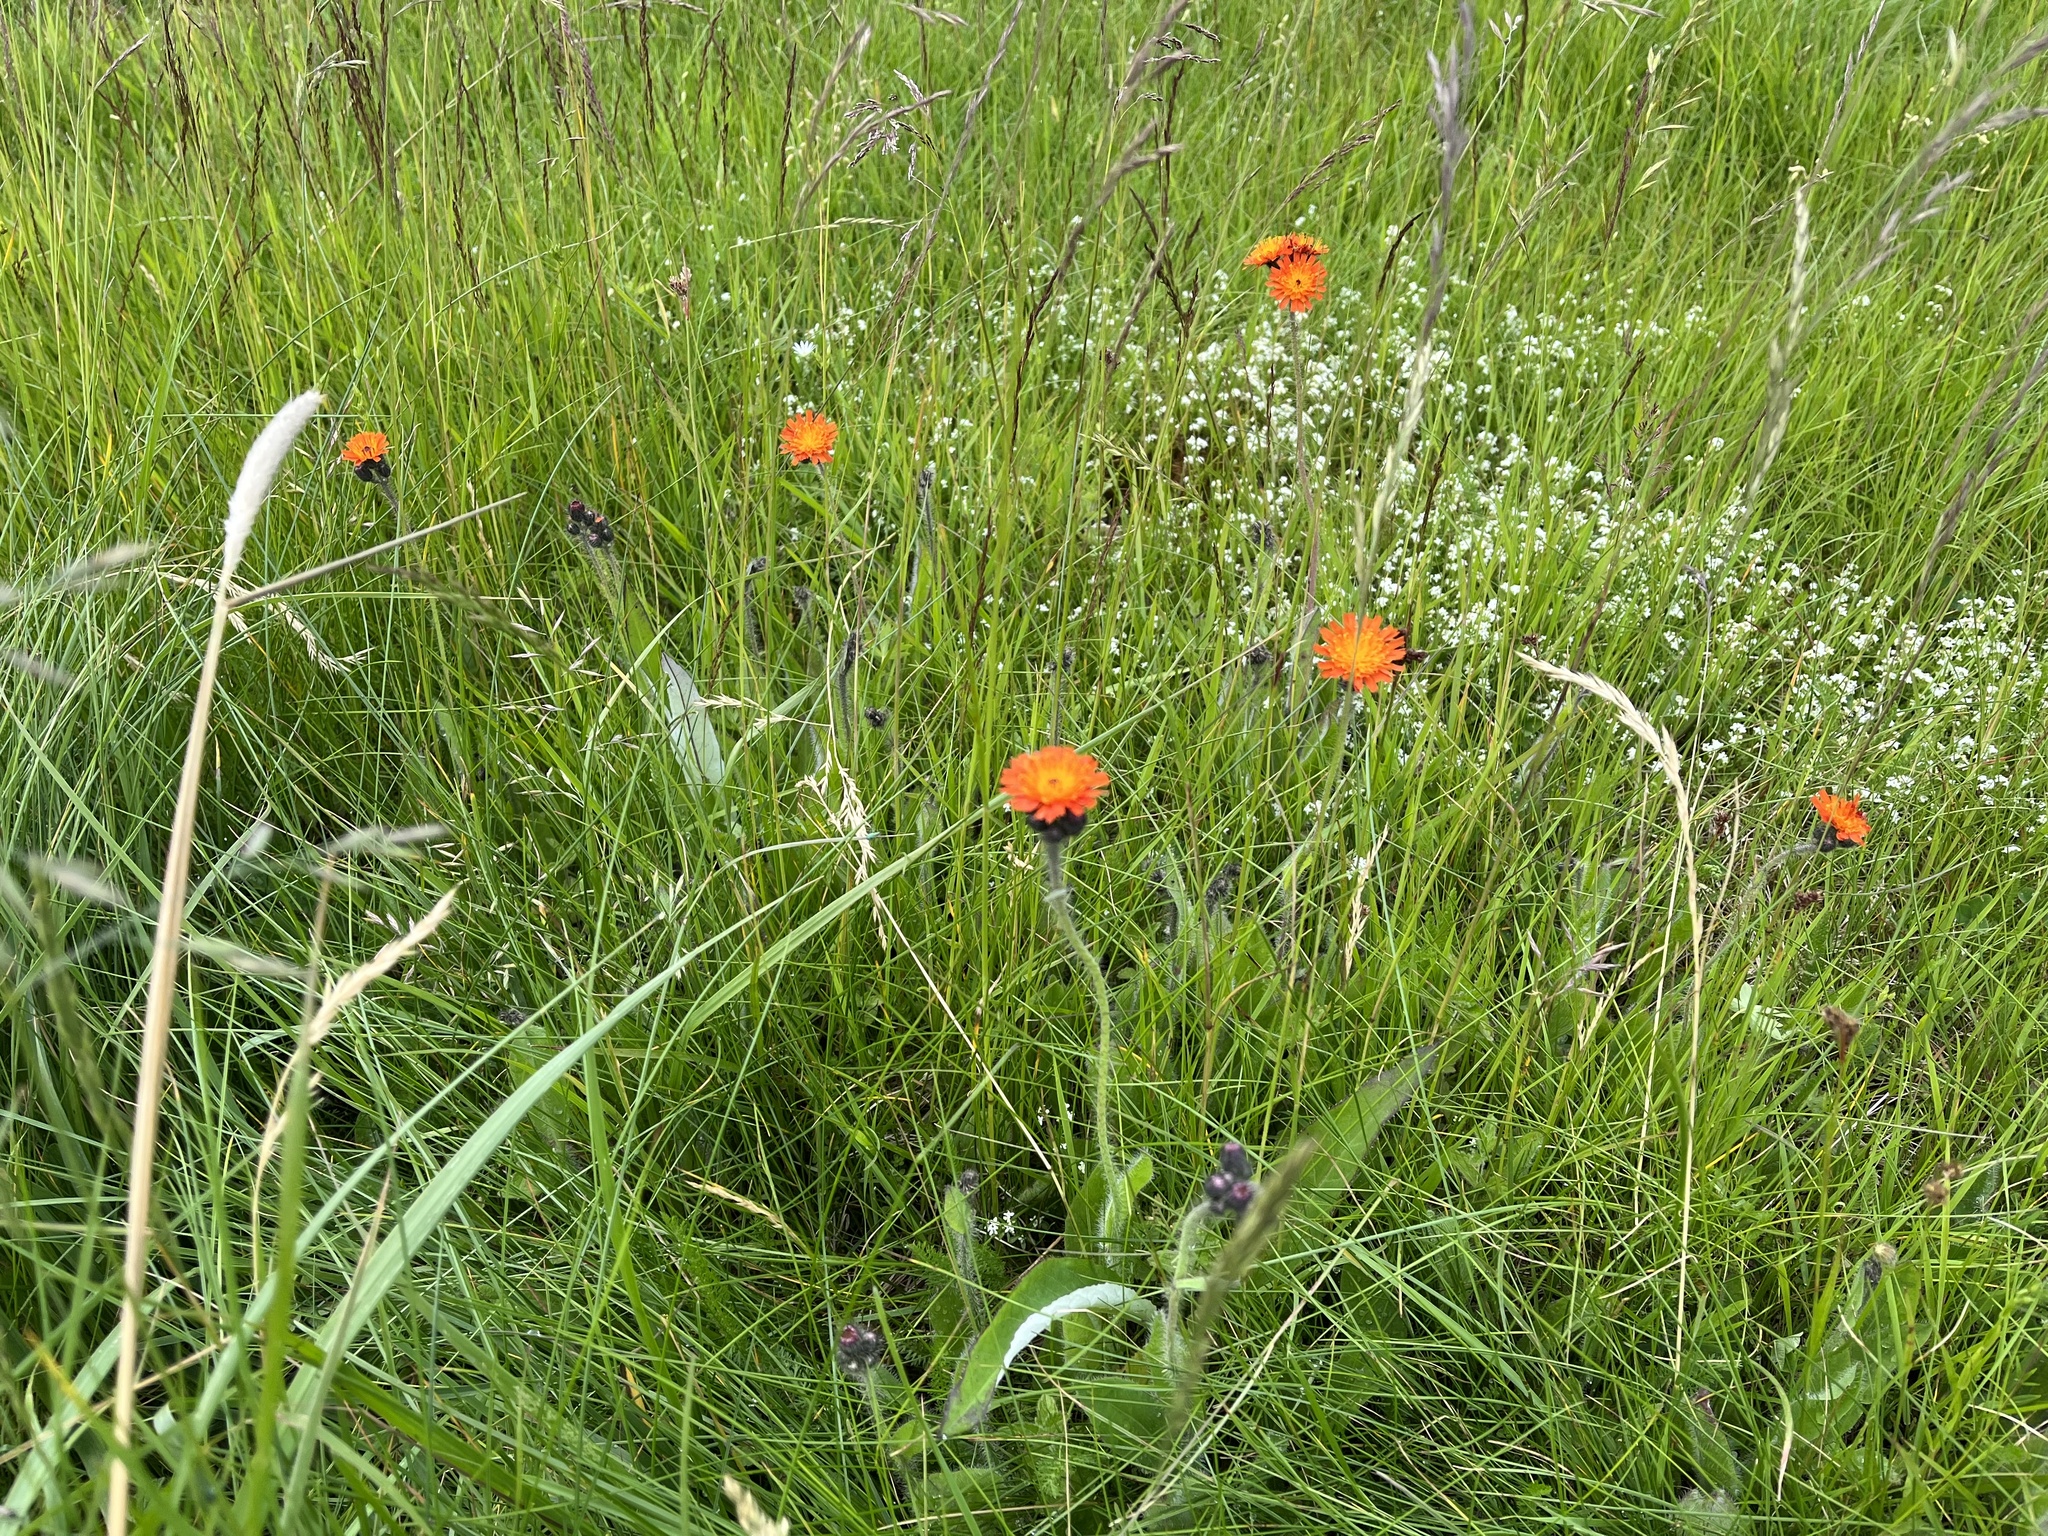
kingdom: Plantae
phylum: Tracheophyta
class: Magnoliopsida
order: Asterales
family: Asteraceae
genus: Pilosella
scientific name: Pilosella aurantiaca
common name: Fox-and-cubs
